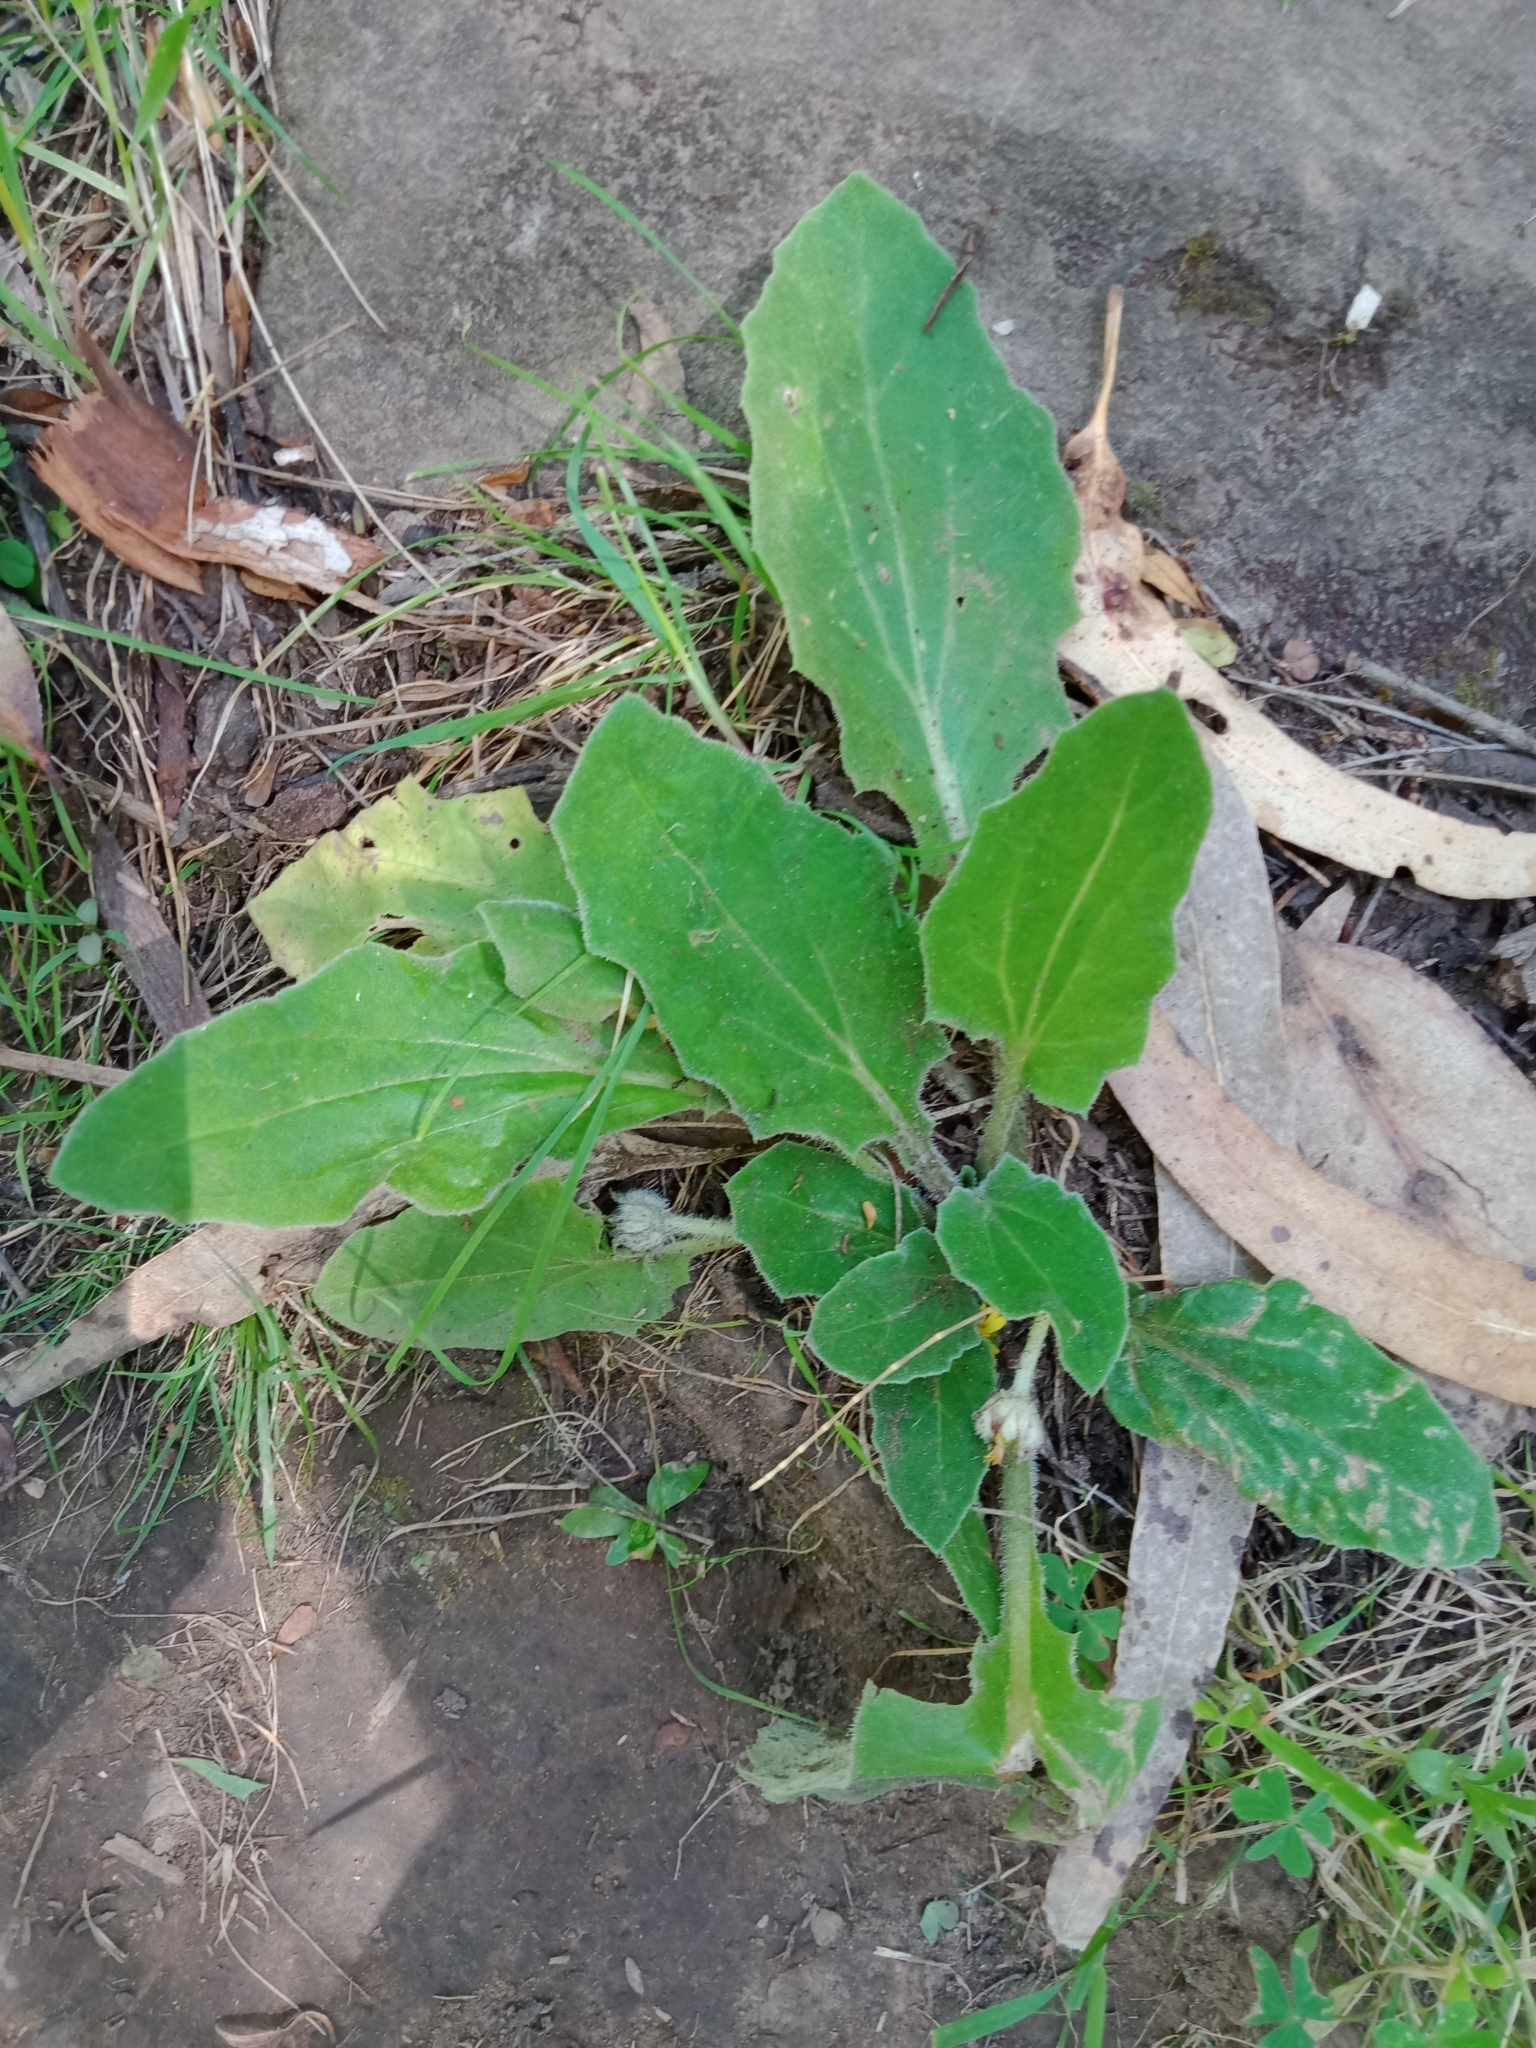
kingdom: Plantae
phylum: Tracheophyta
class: Magnoliopsida
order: Asterales
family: Asteraceae
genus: Cymbonotus
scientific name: Cymbonotus preissianus
